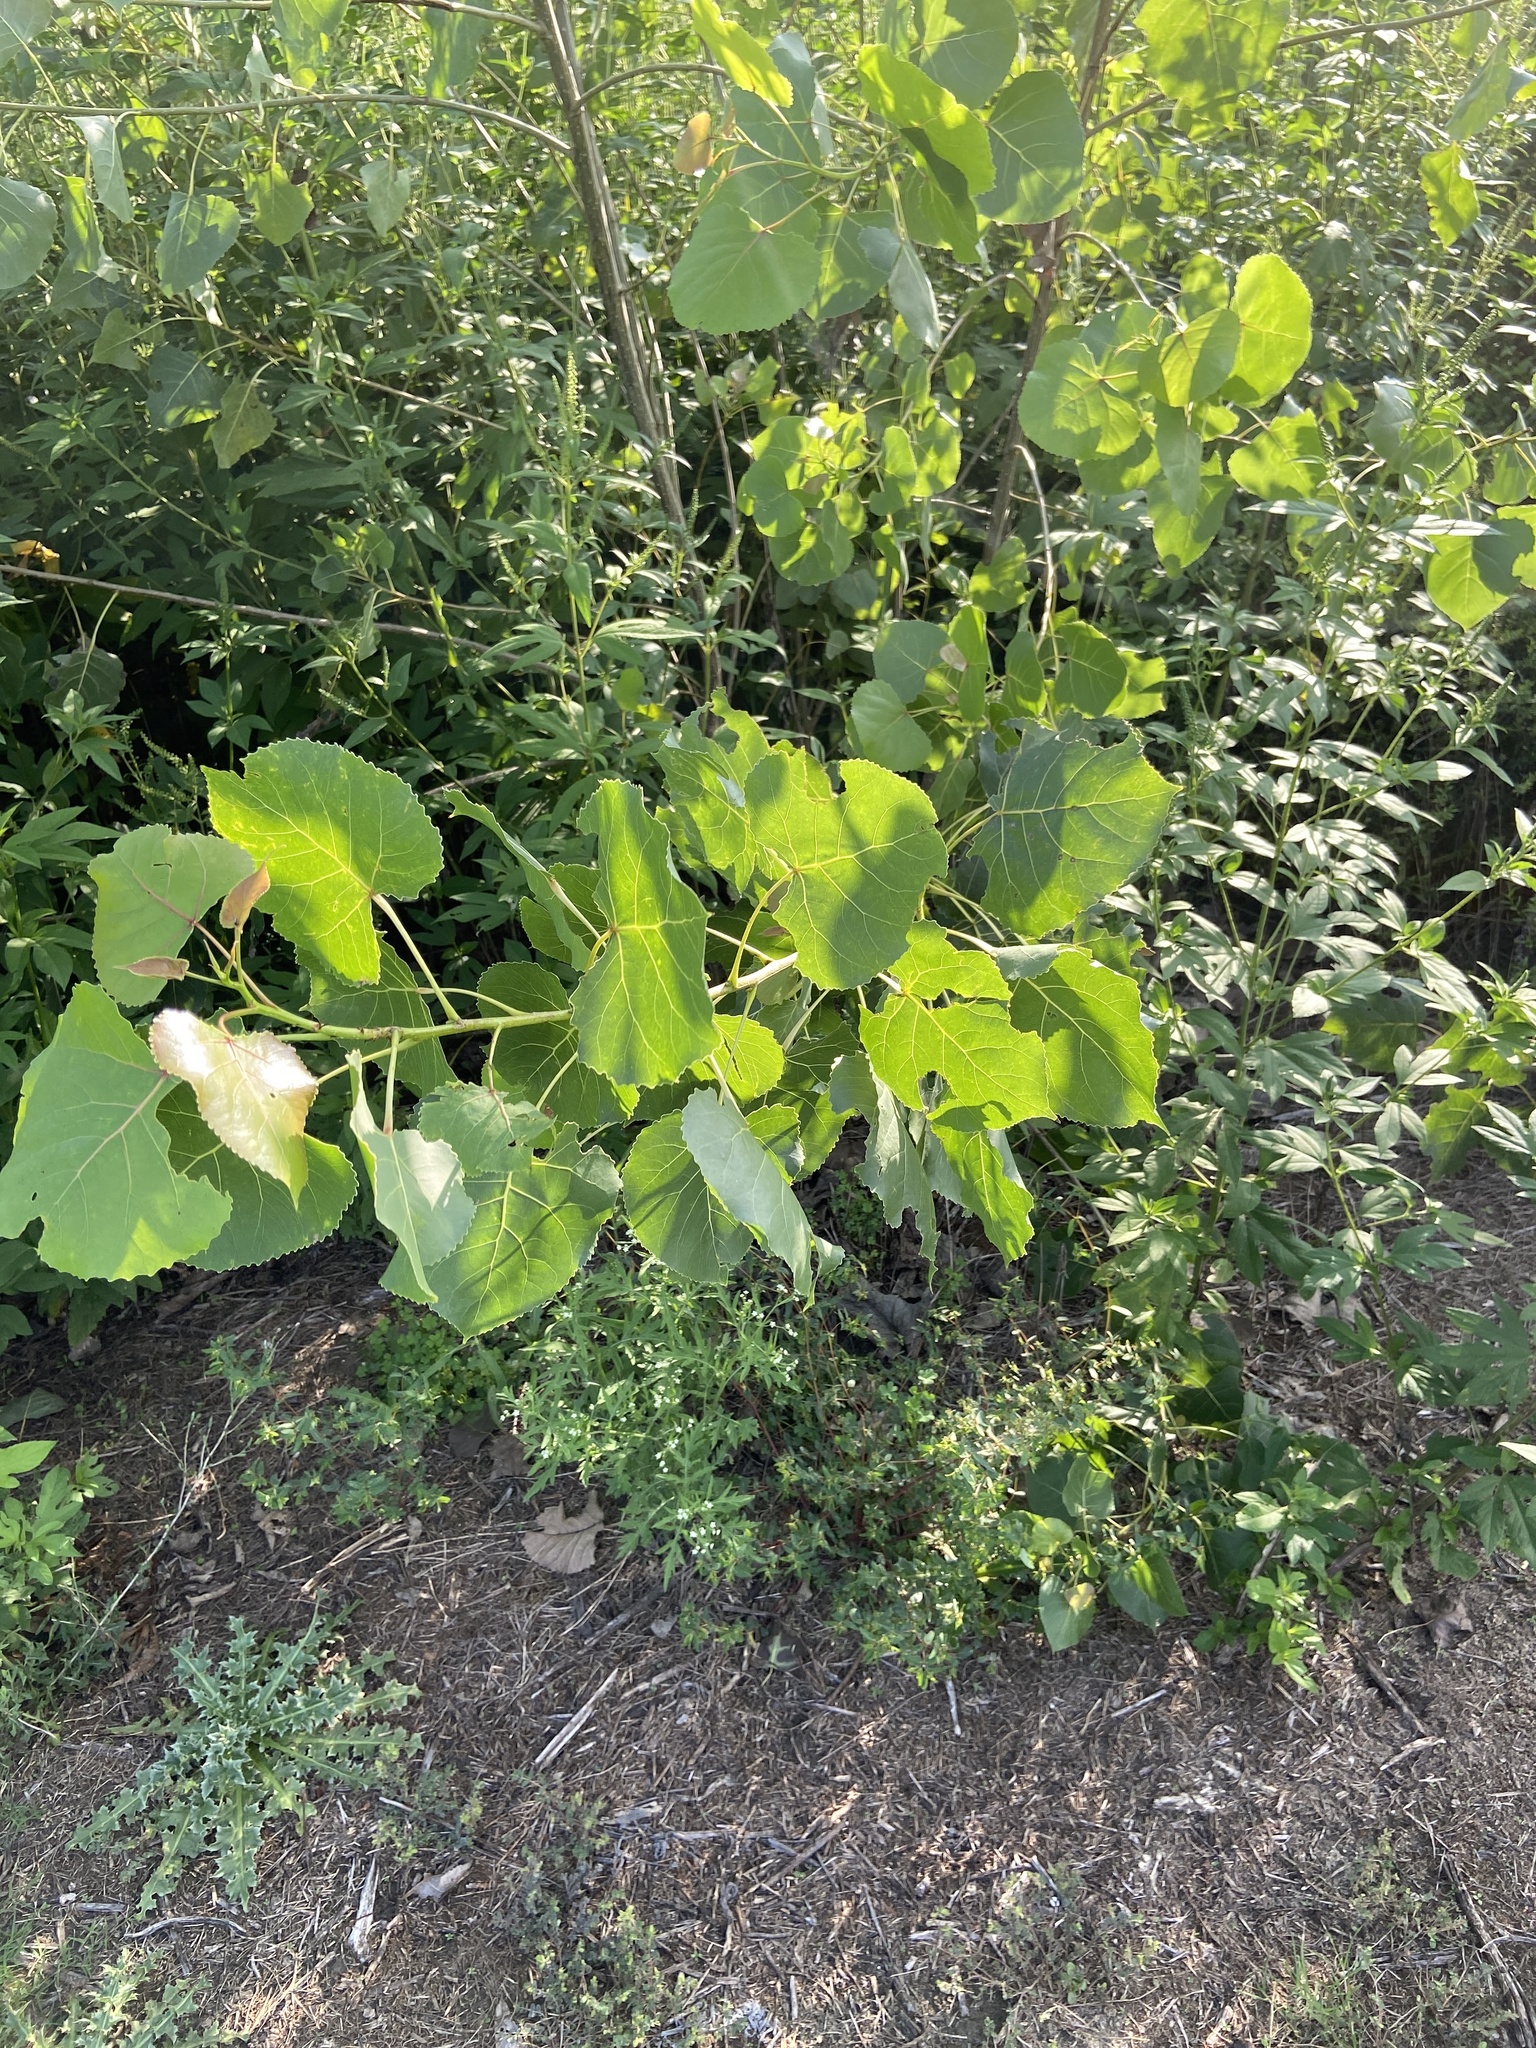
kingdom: Plantae
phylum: Tracheophyta
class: Magnoliopsida
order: Malpighiales
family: Salicaceae
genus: Populus
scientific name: Populus deltoides
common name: Eastern cottonwood
